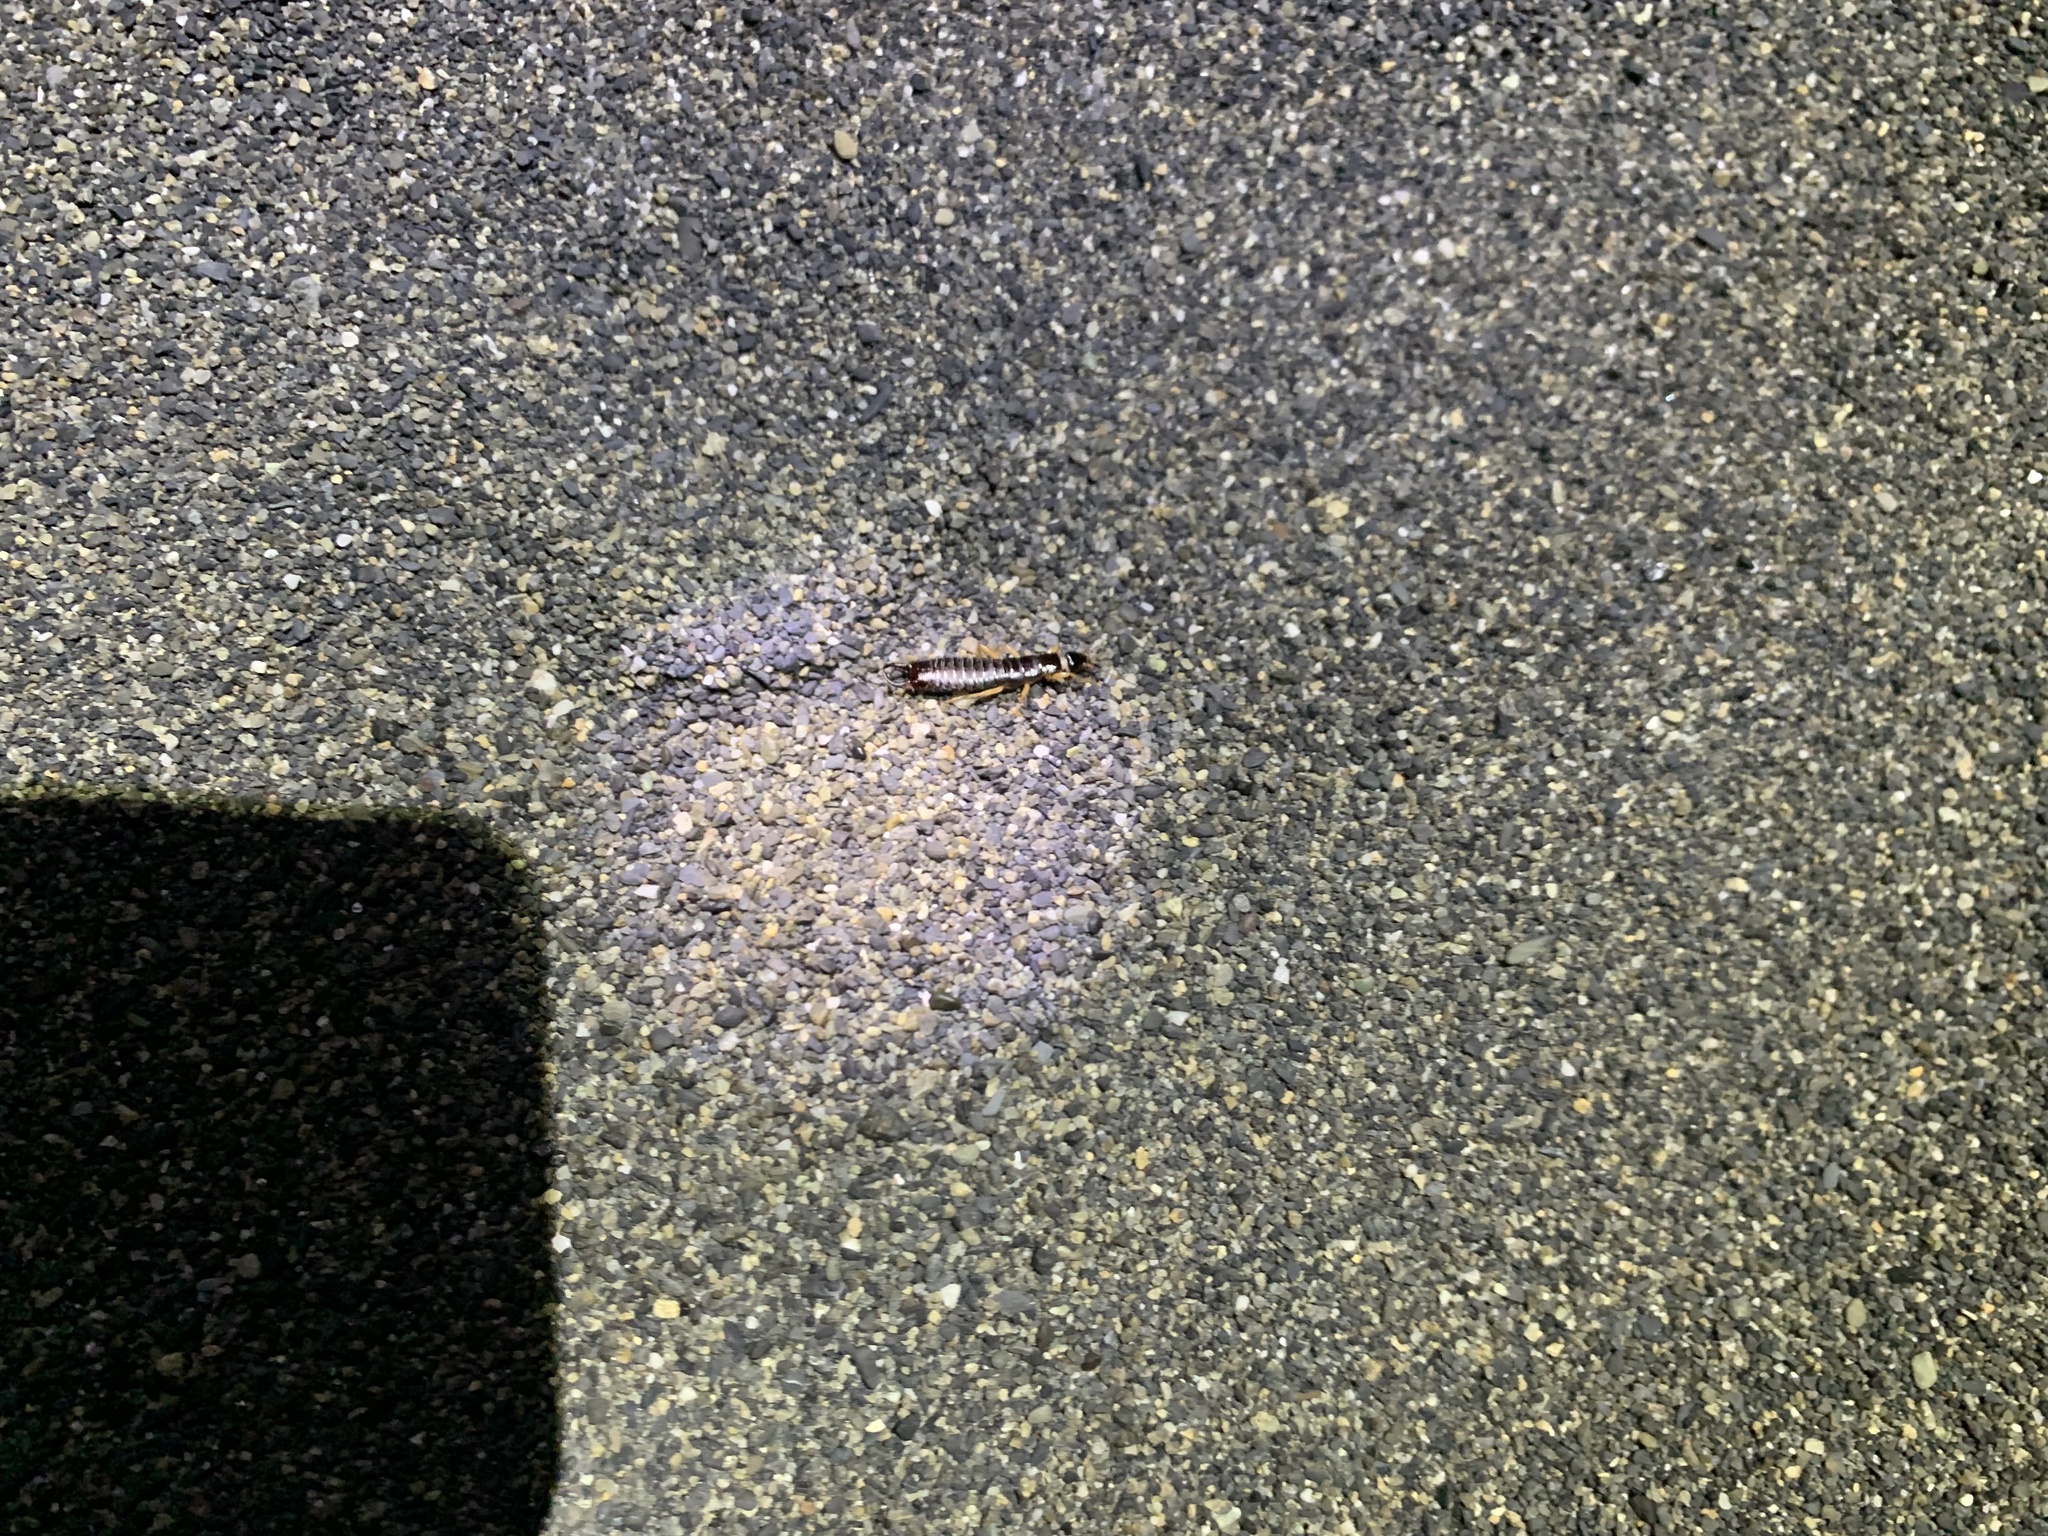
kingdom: Animalia
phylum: Arthropoda
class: Insecta
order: Dermaptera
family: Anisolabididae
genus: Anisolabis
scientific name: Anisolabis maritima
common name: Maritime earwig
